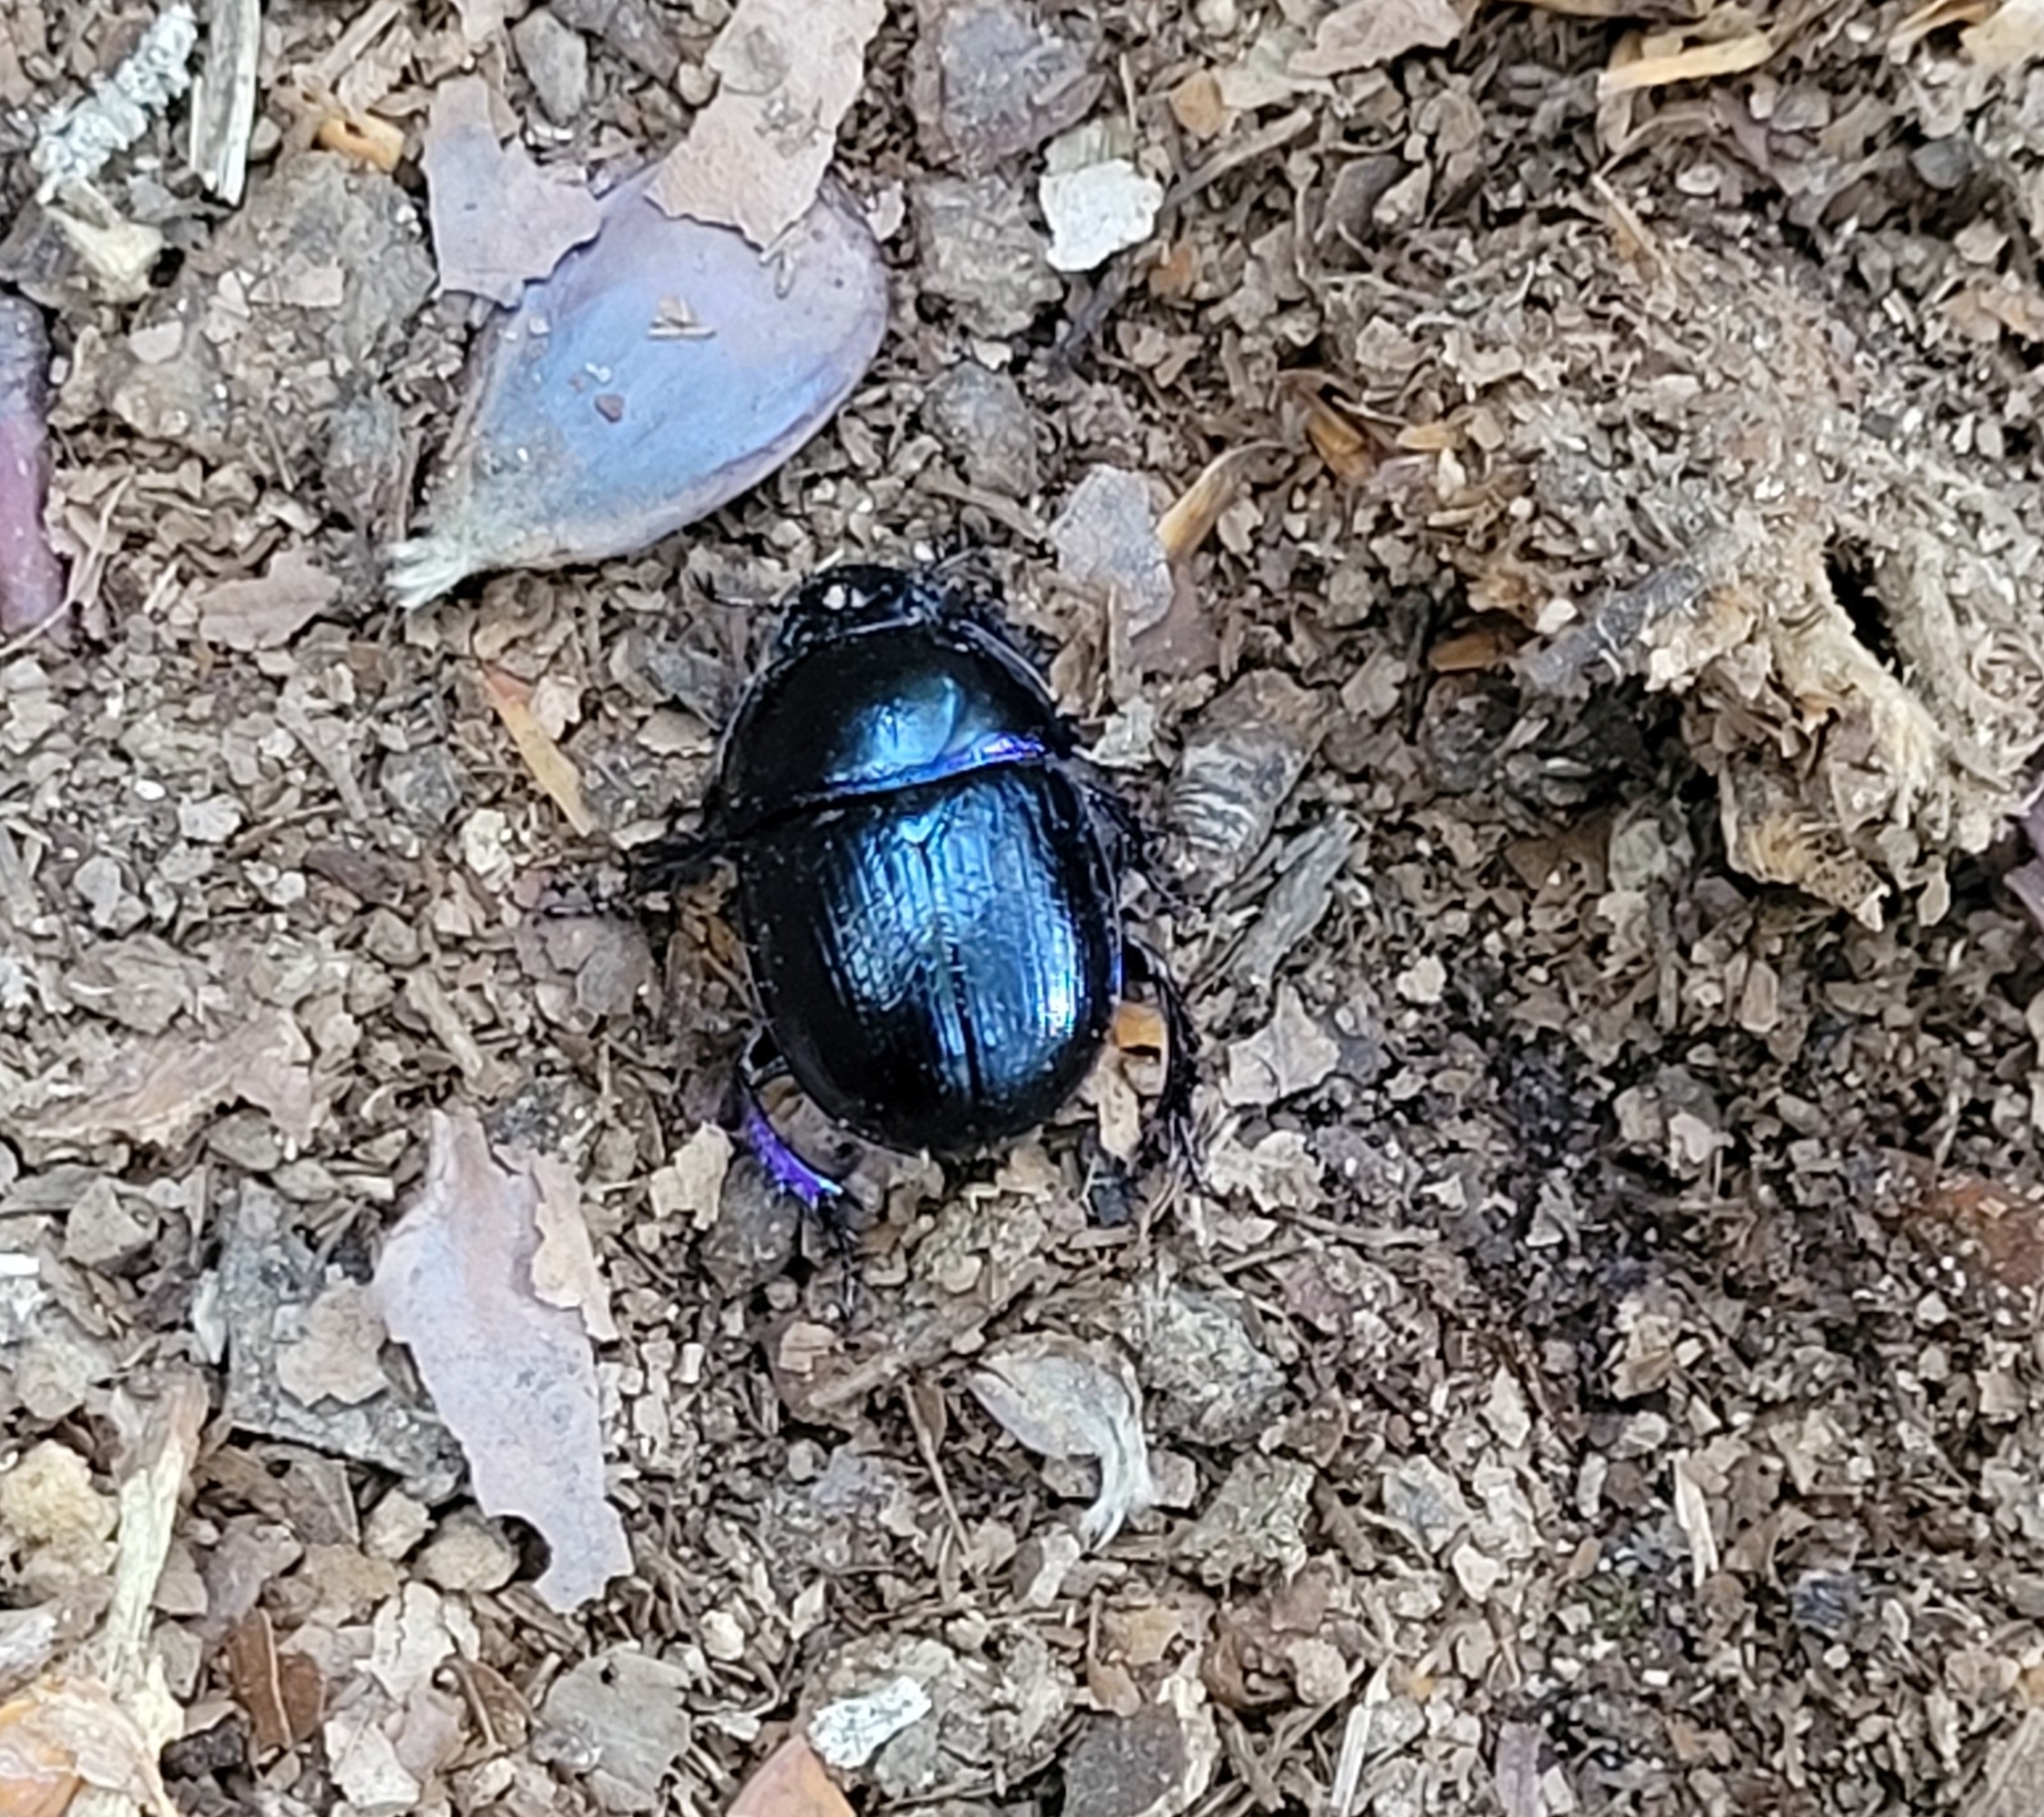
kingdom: Animalia
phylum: Arthropoda
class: Insecta
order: Coleoptera
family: Geotrupidae
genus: Anoplotrupes
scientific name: Anoplotrupes stercorosus
